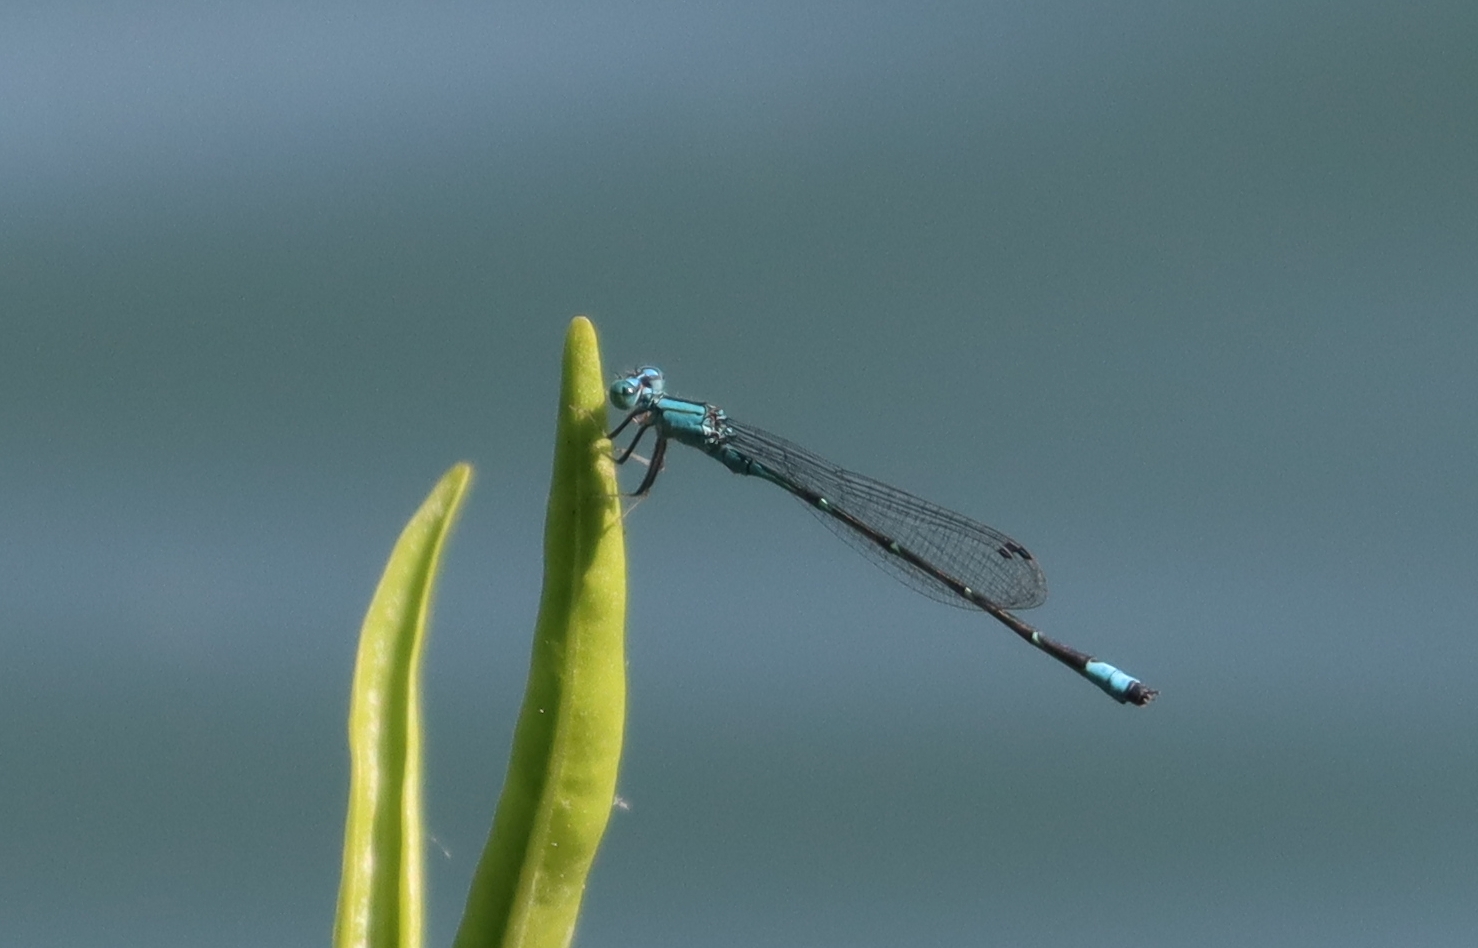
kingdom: Animalia
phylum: Arthropoda
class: Insecta
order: Odonata
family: Coenagrionidae
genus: Enallagma
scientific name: Enallagma traviatum
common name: Slender bluet
